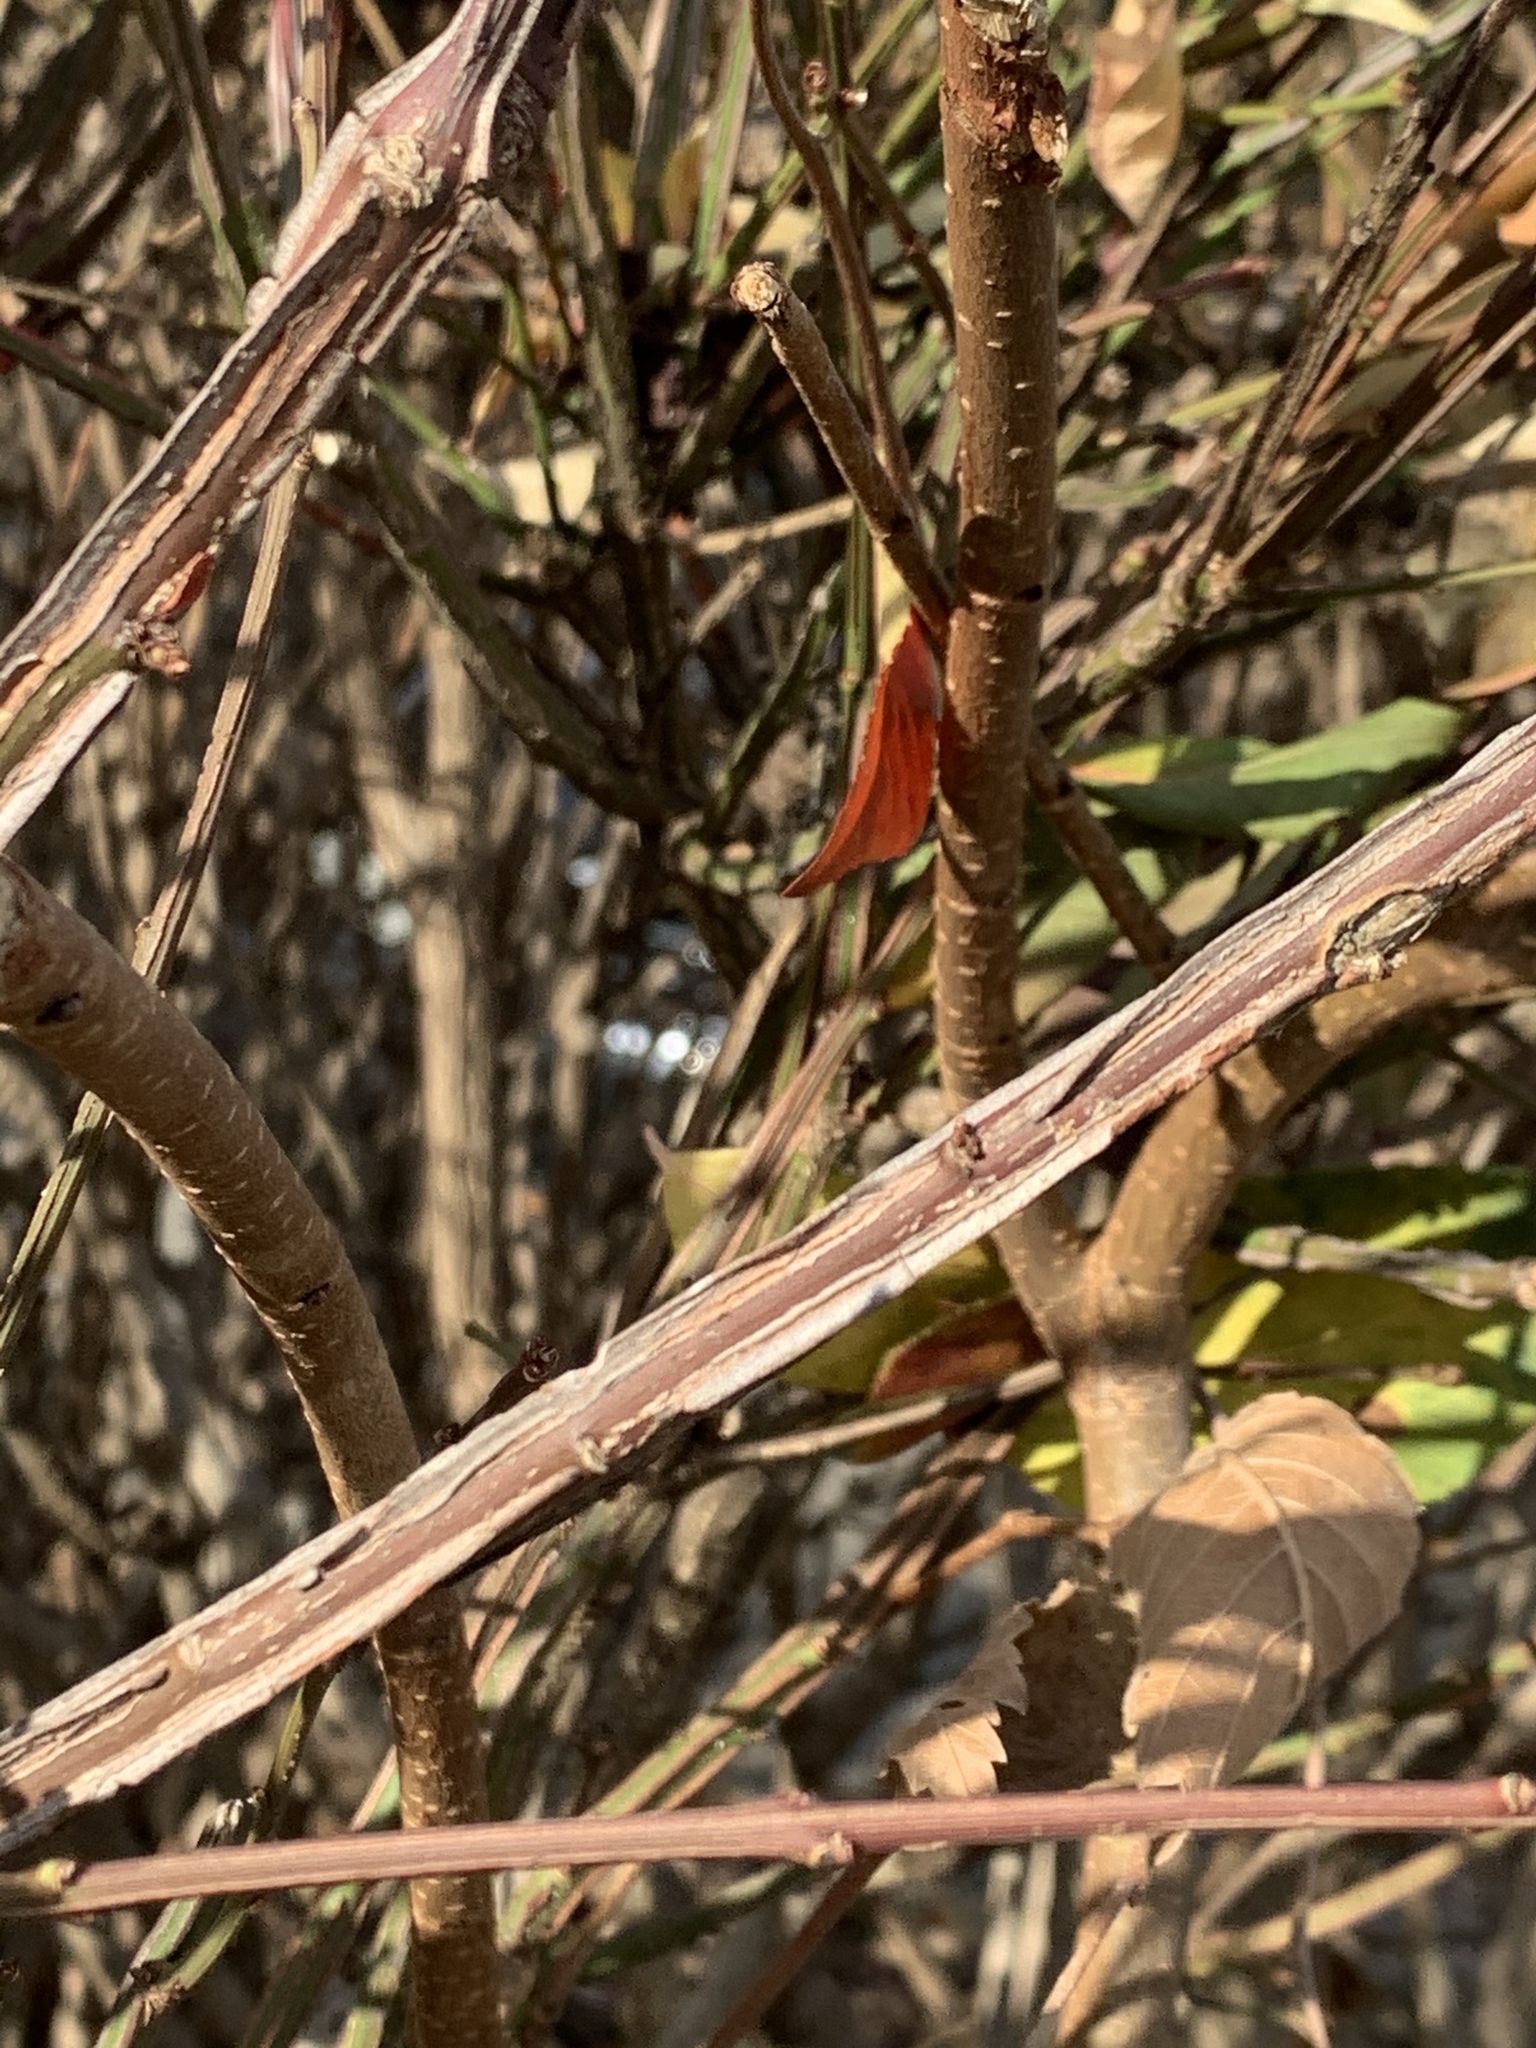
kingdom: Plantae
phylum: Tracheophyta
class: Magnoliopsida
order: Celastrales
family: Celastraceae
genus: Euonymus
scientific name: Euonymus alatus
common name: Winged euonymus
